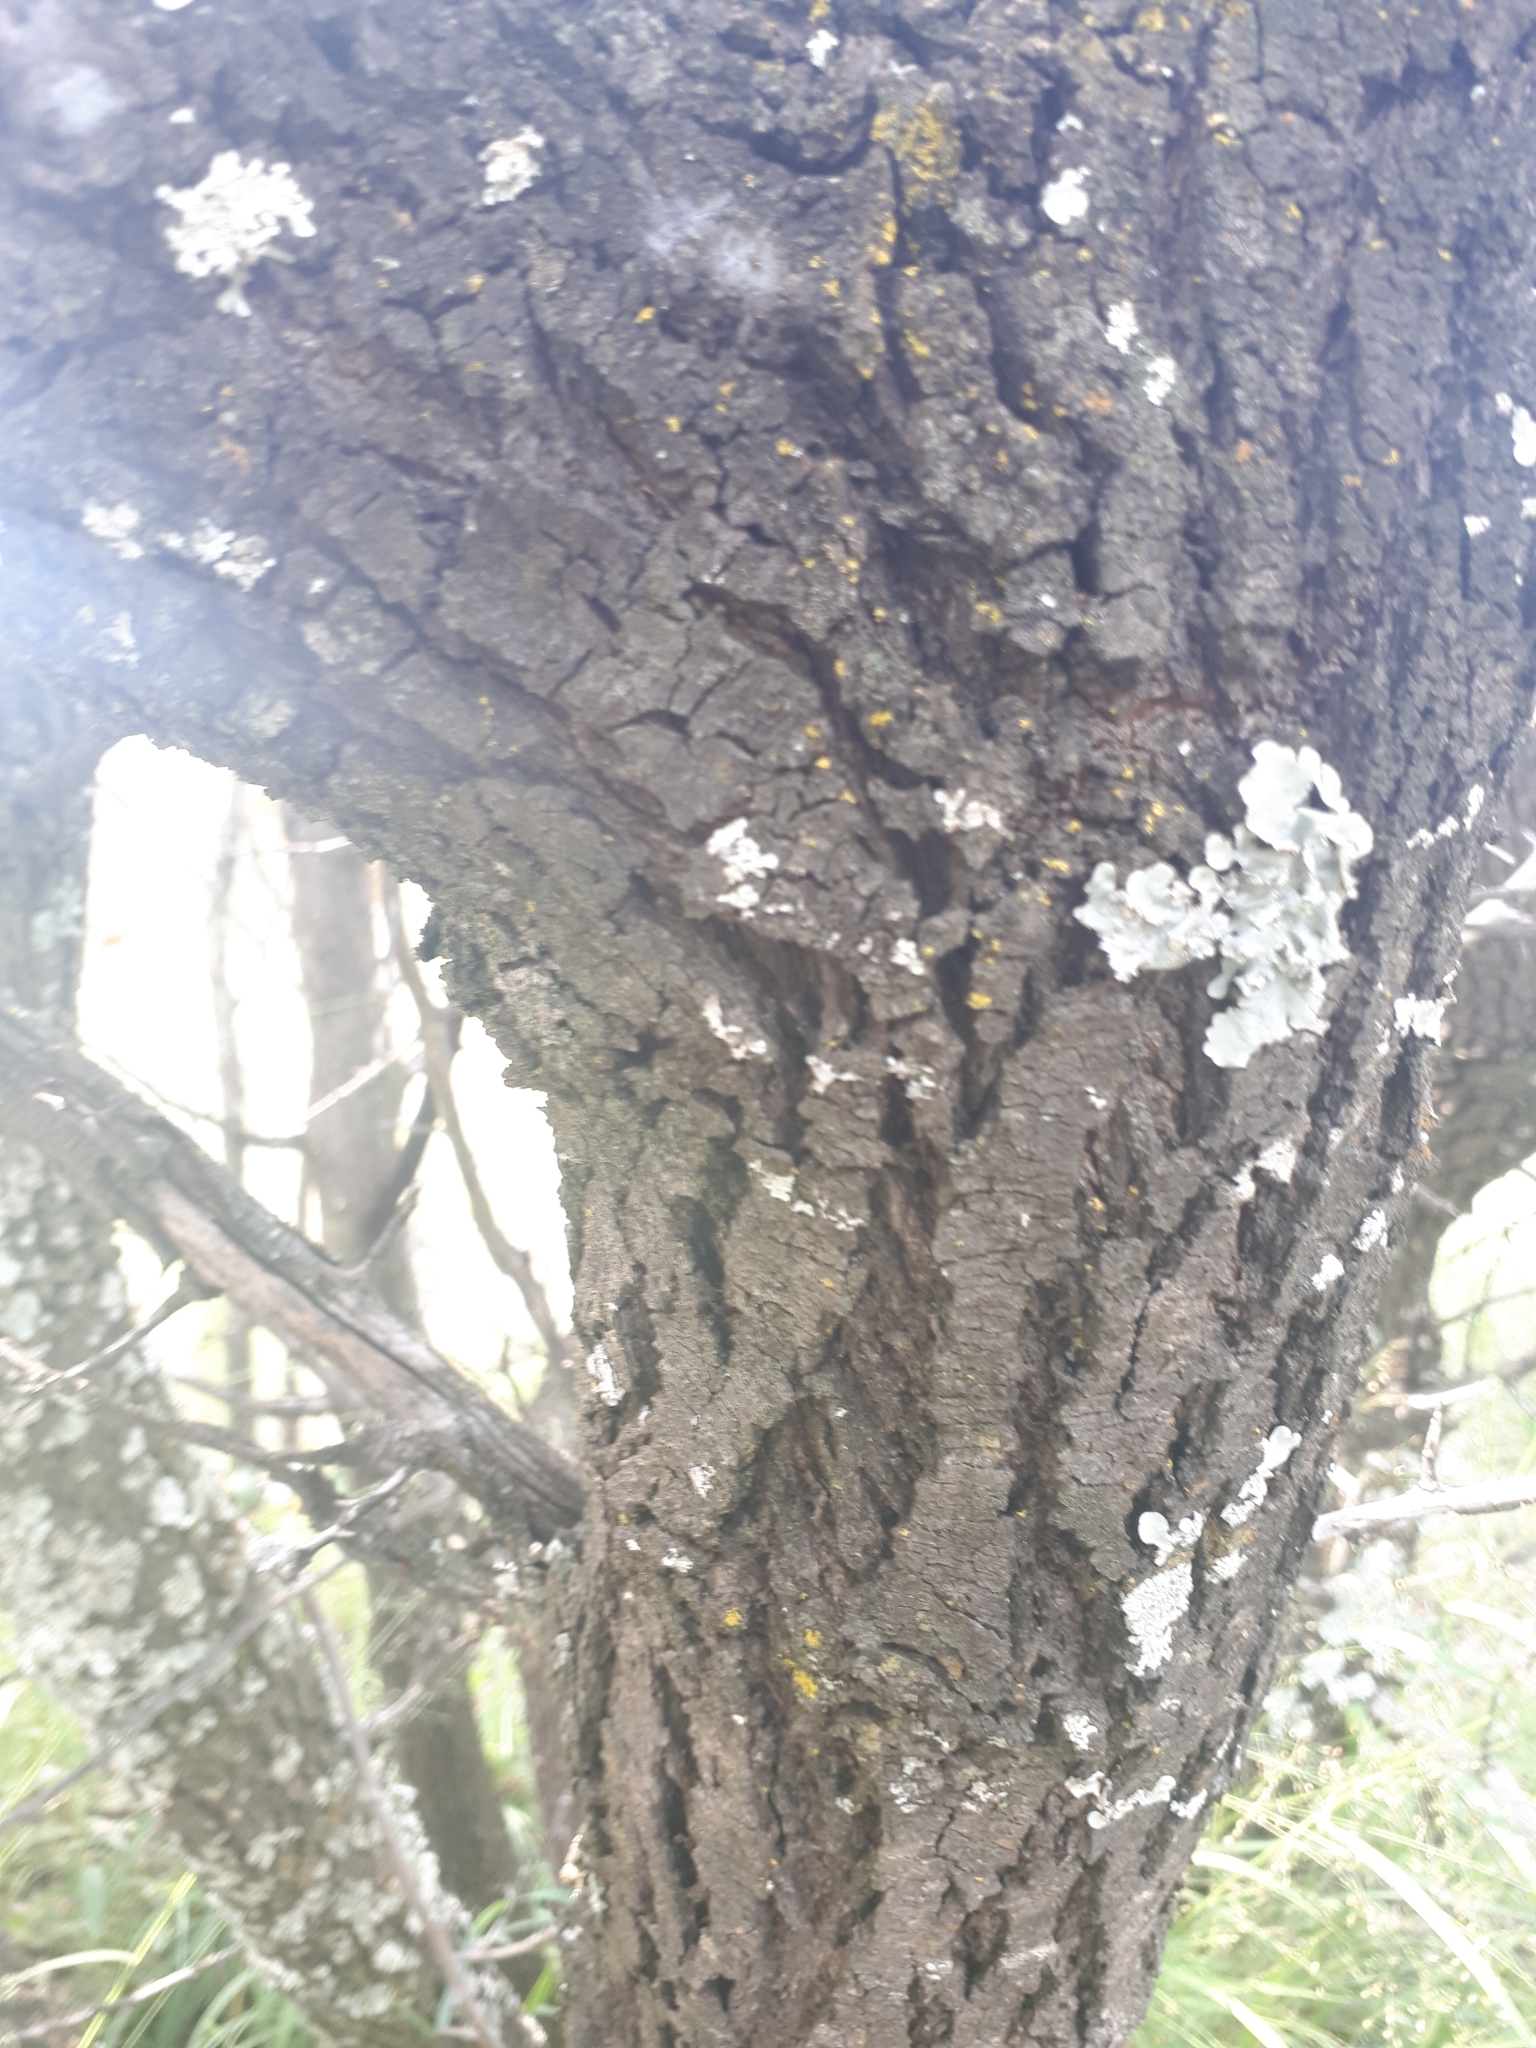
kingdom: Plantae
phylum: Tracheophyta
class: Magnoliopsida
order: Santalales
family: Ximeniaceae
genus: Ximenia
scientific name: Ximenia caffra
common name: Large sourplum
